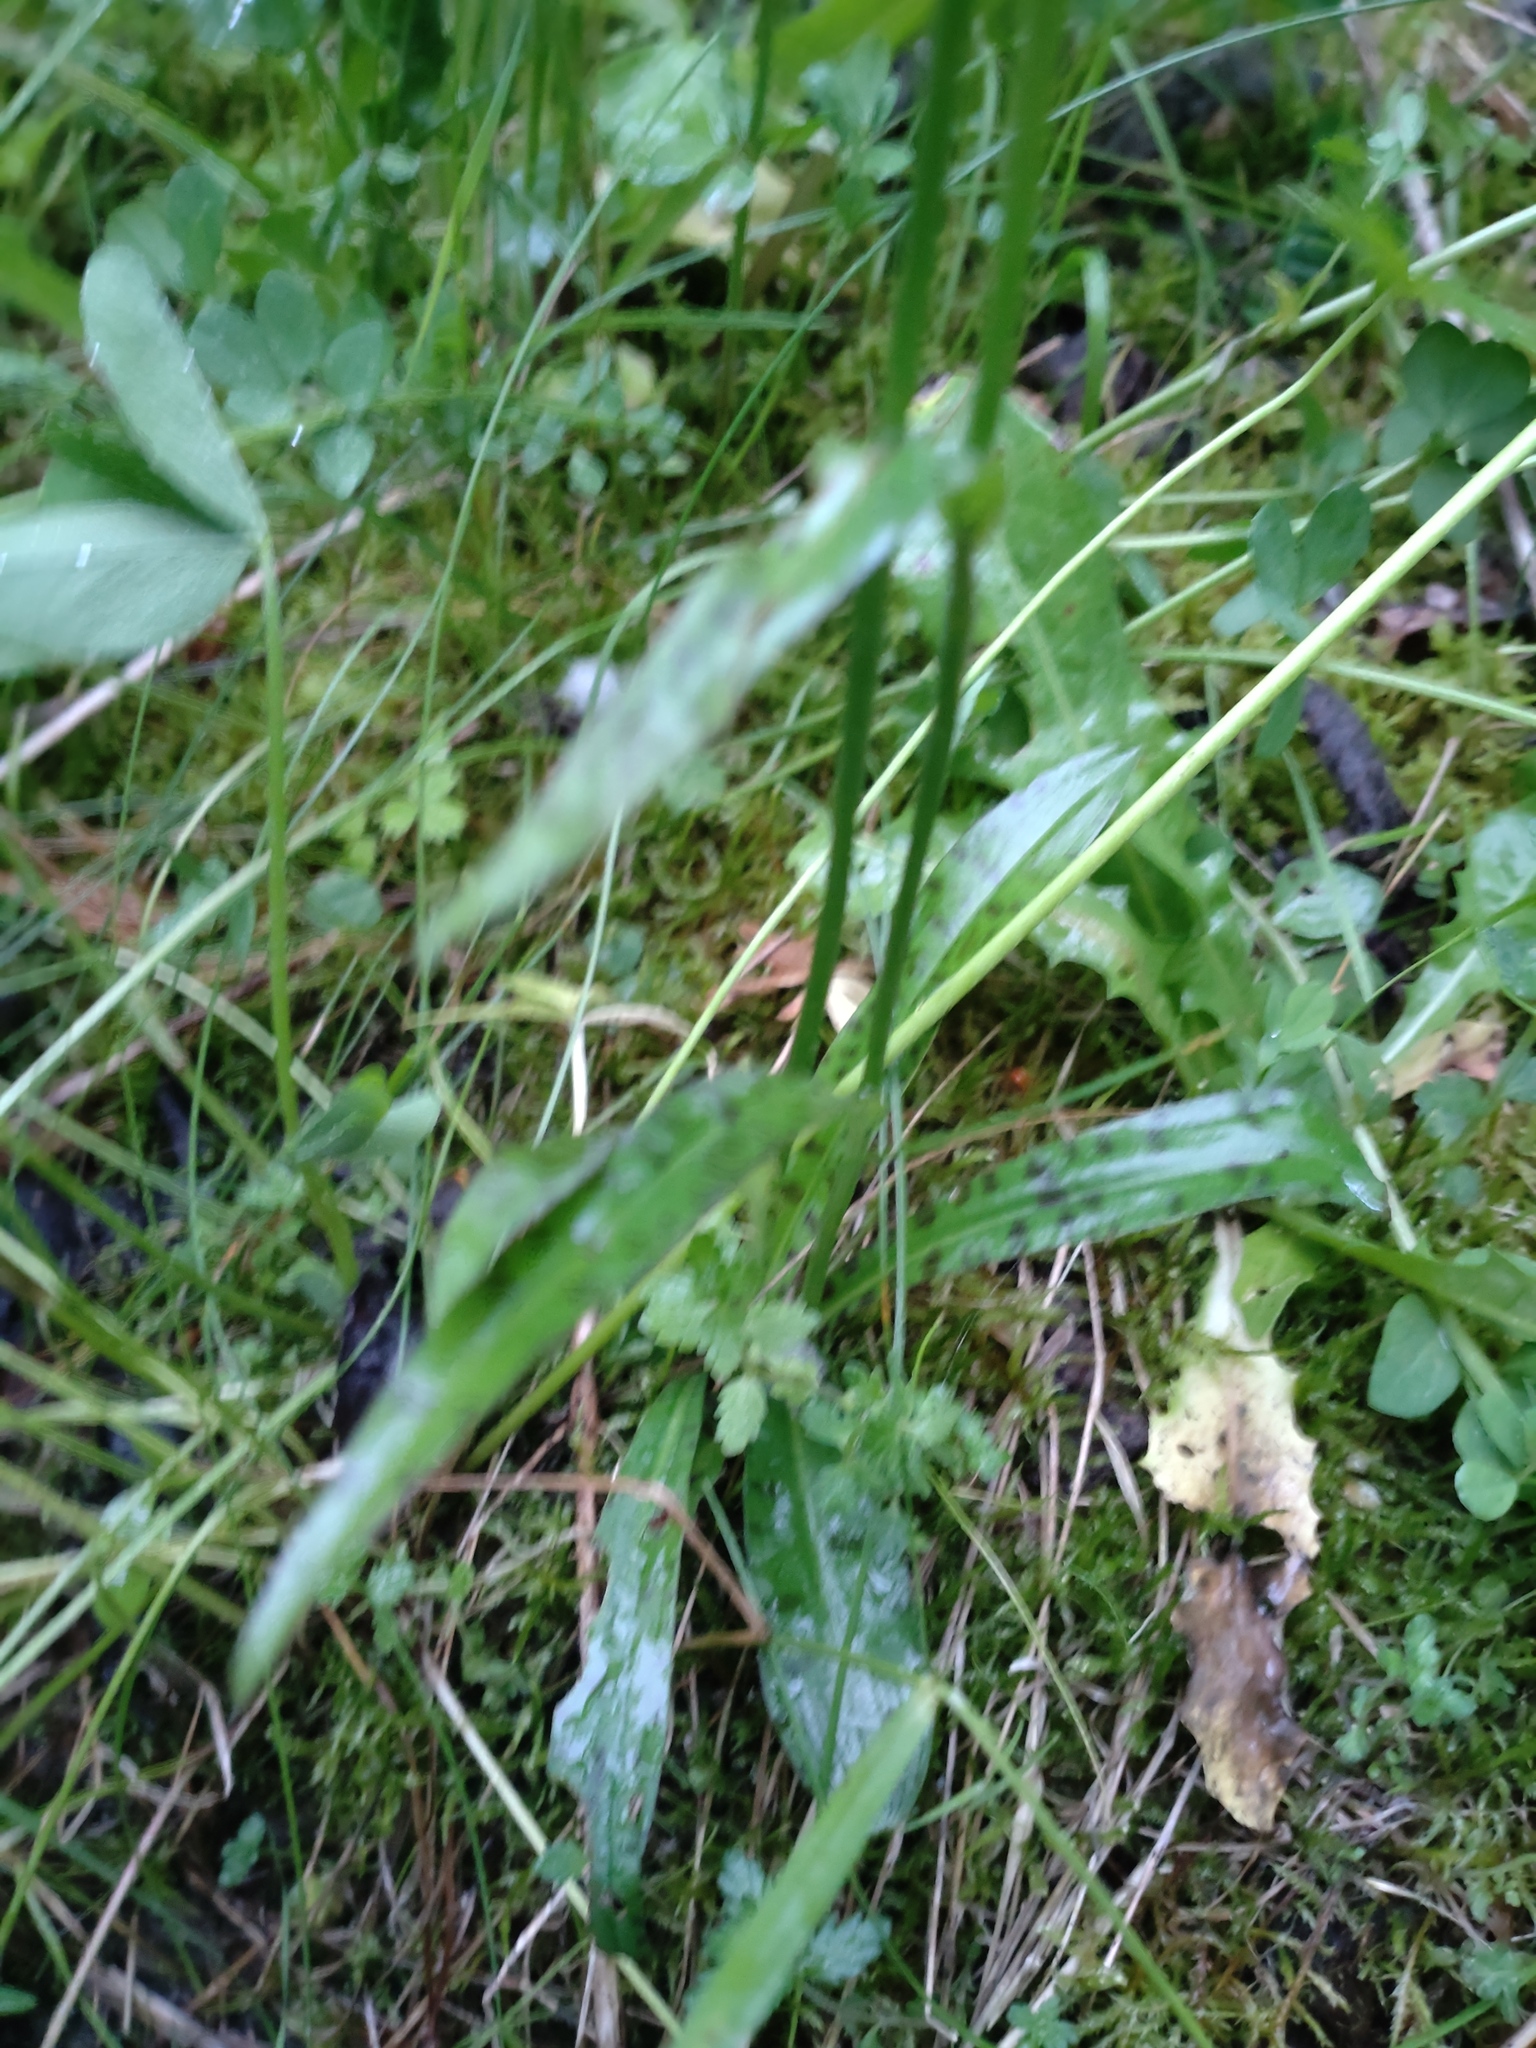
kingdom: Plantae
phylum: Tracheophyta
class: Liliopsida
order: Asparagales
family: Orchidaceae
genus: Dactylorhiza
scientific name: Dactylorhiza maculata
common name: Heath spotted-orchid
